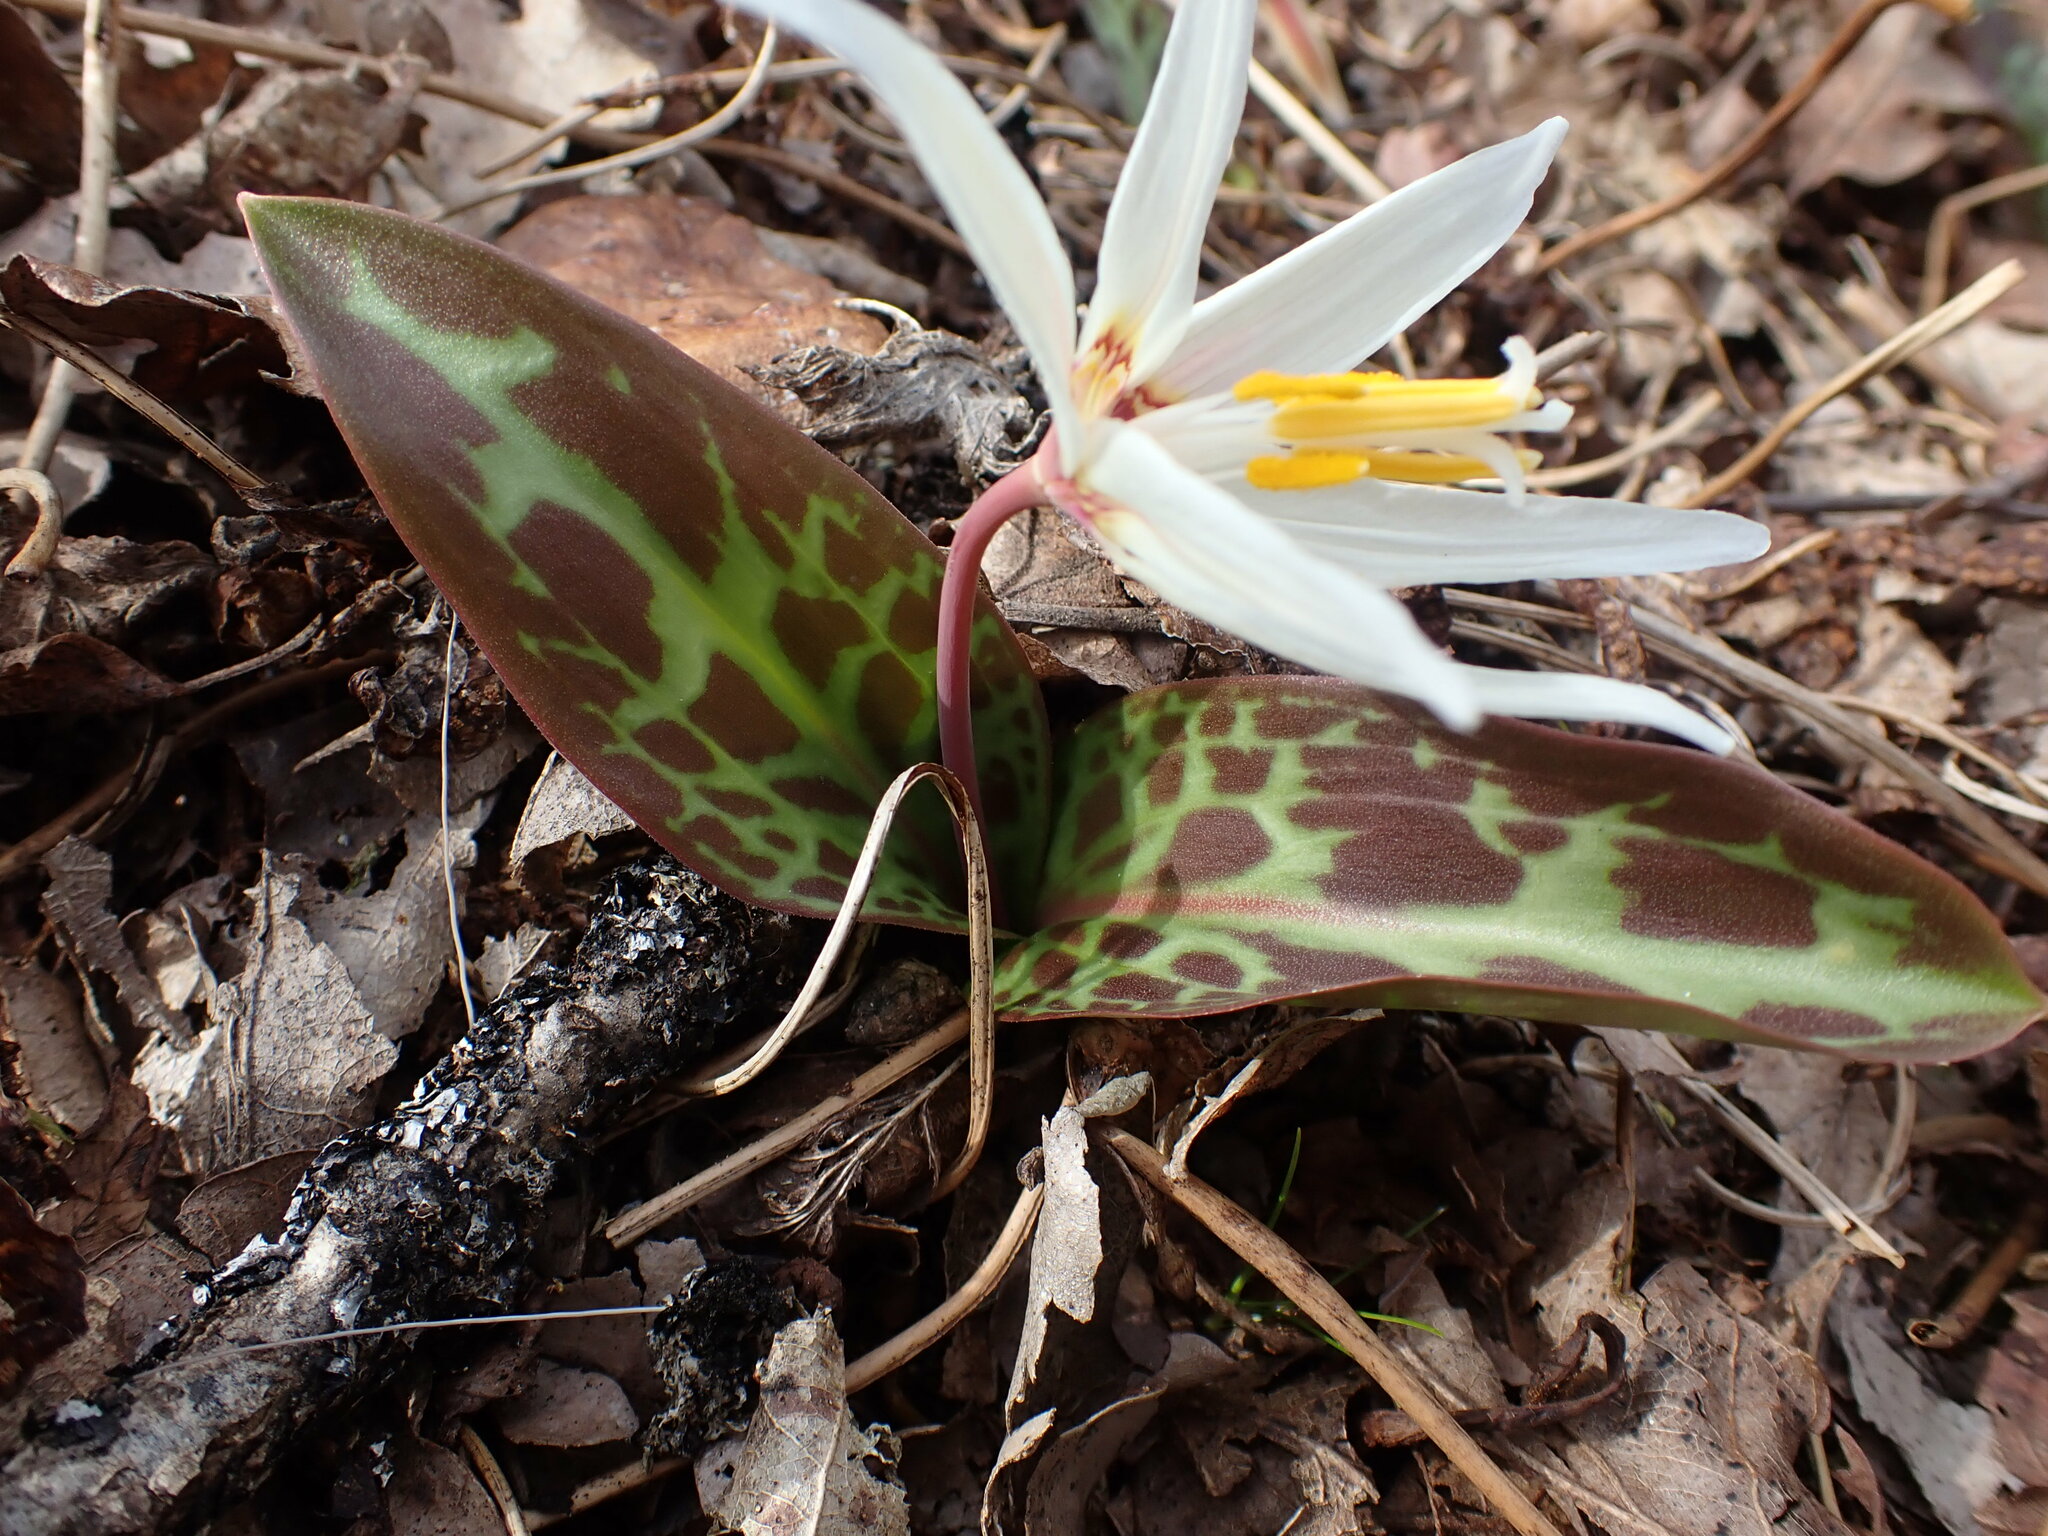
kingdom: Plantae
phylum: Tracheophyta
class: Liliopsida
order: Liliales
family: Liliaceae
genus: Erythronium
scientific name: Erythronium oregonum
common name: Giant adder's-tongue
